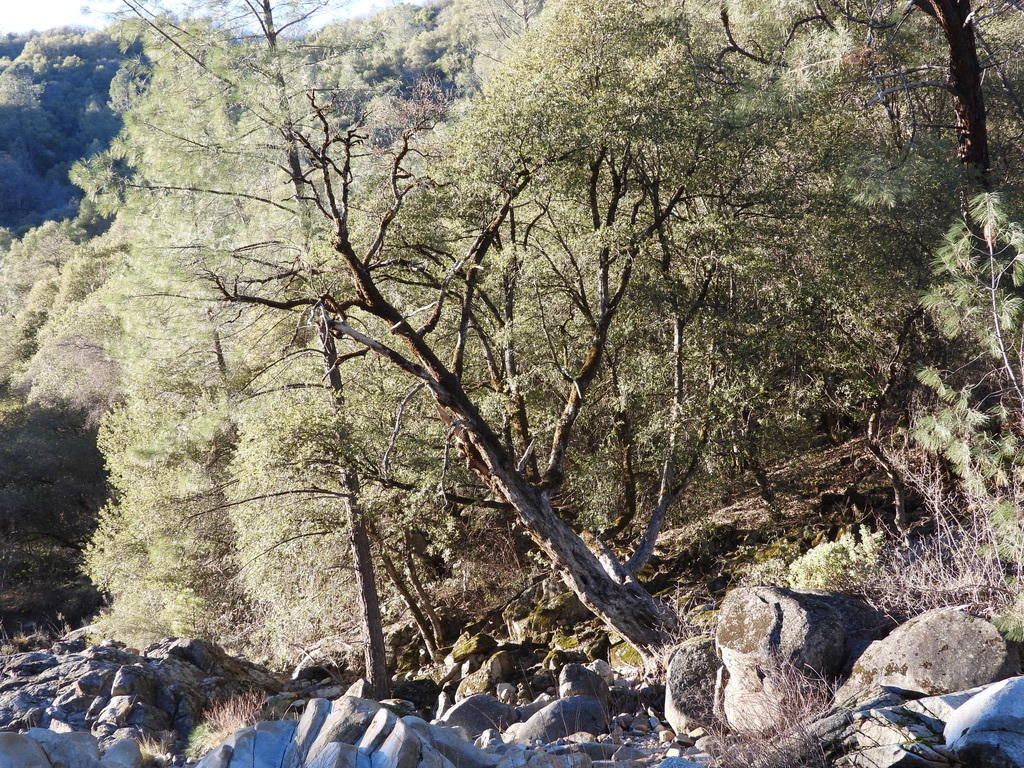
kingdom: Plantae
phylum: Tracheophyta
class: Magnoliopsida
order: Fagales
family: Fagaceae
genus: Quercus
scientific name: Quercus chrysolepis
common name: Canyon live oak
